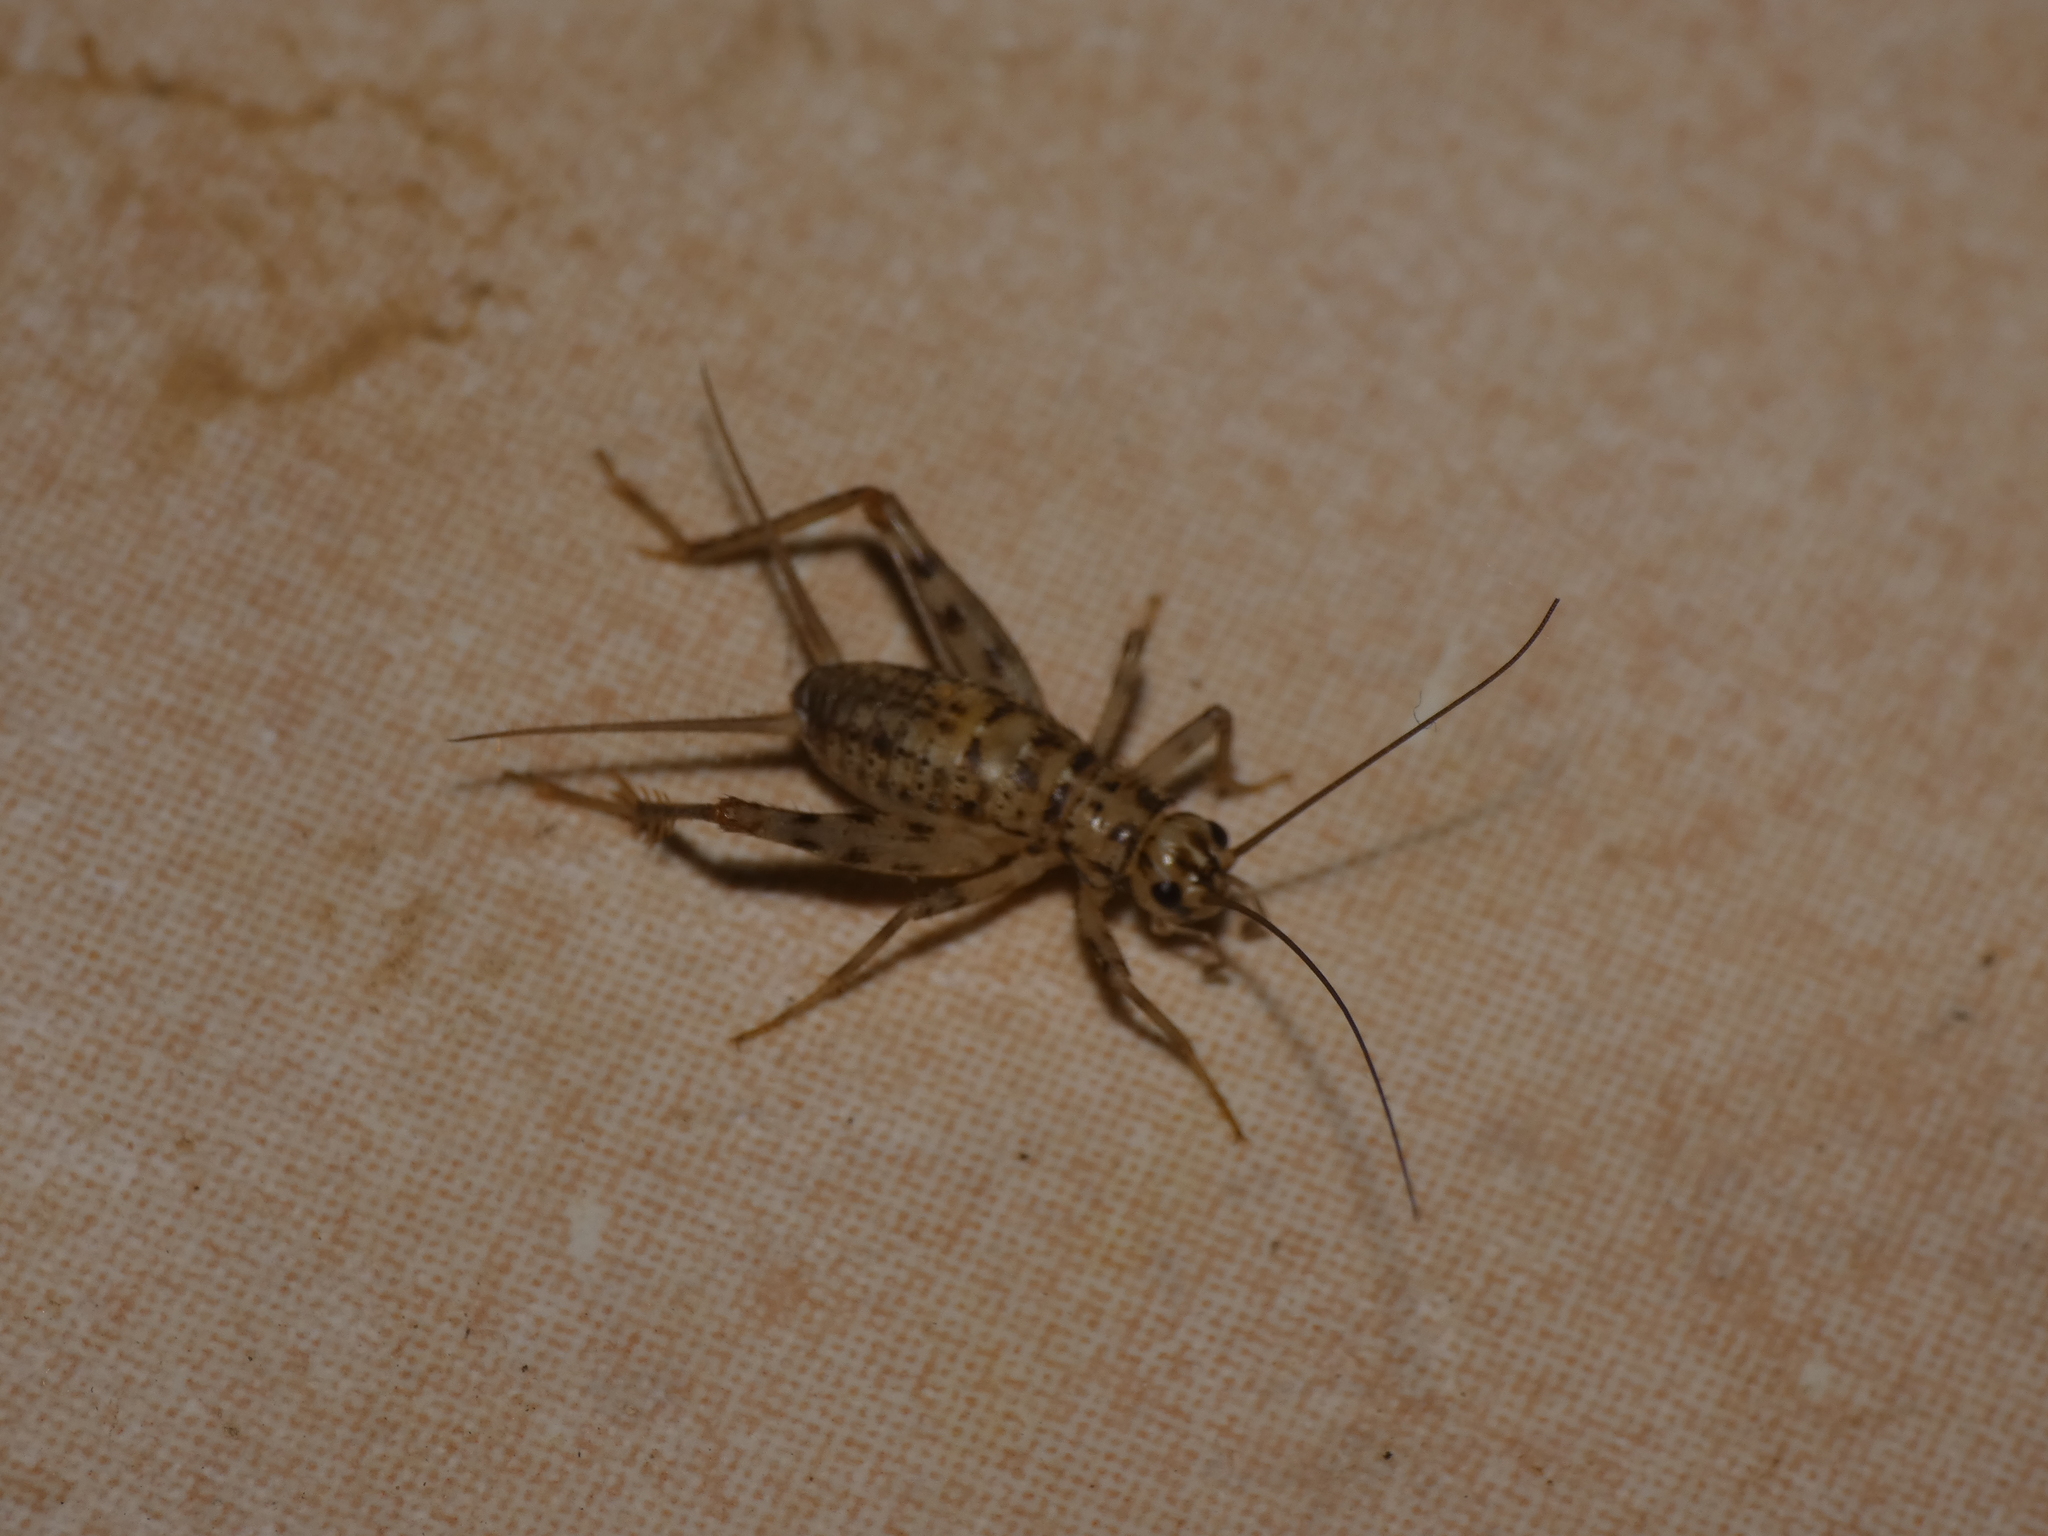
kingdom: Animalia
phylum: Arthropoda
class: Insecta
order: Orthoptera
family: Gryllidae
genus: Gryllomorpha
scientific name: Gryllomorpha dalmatina
